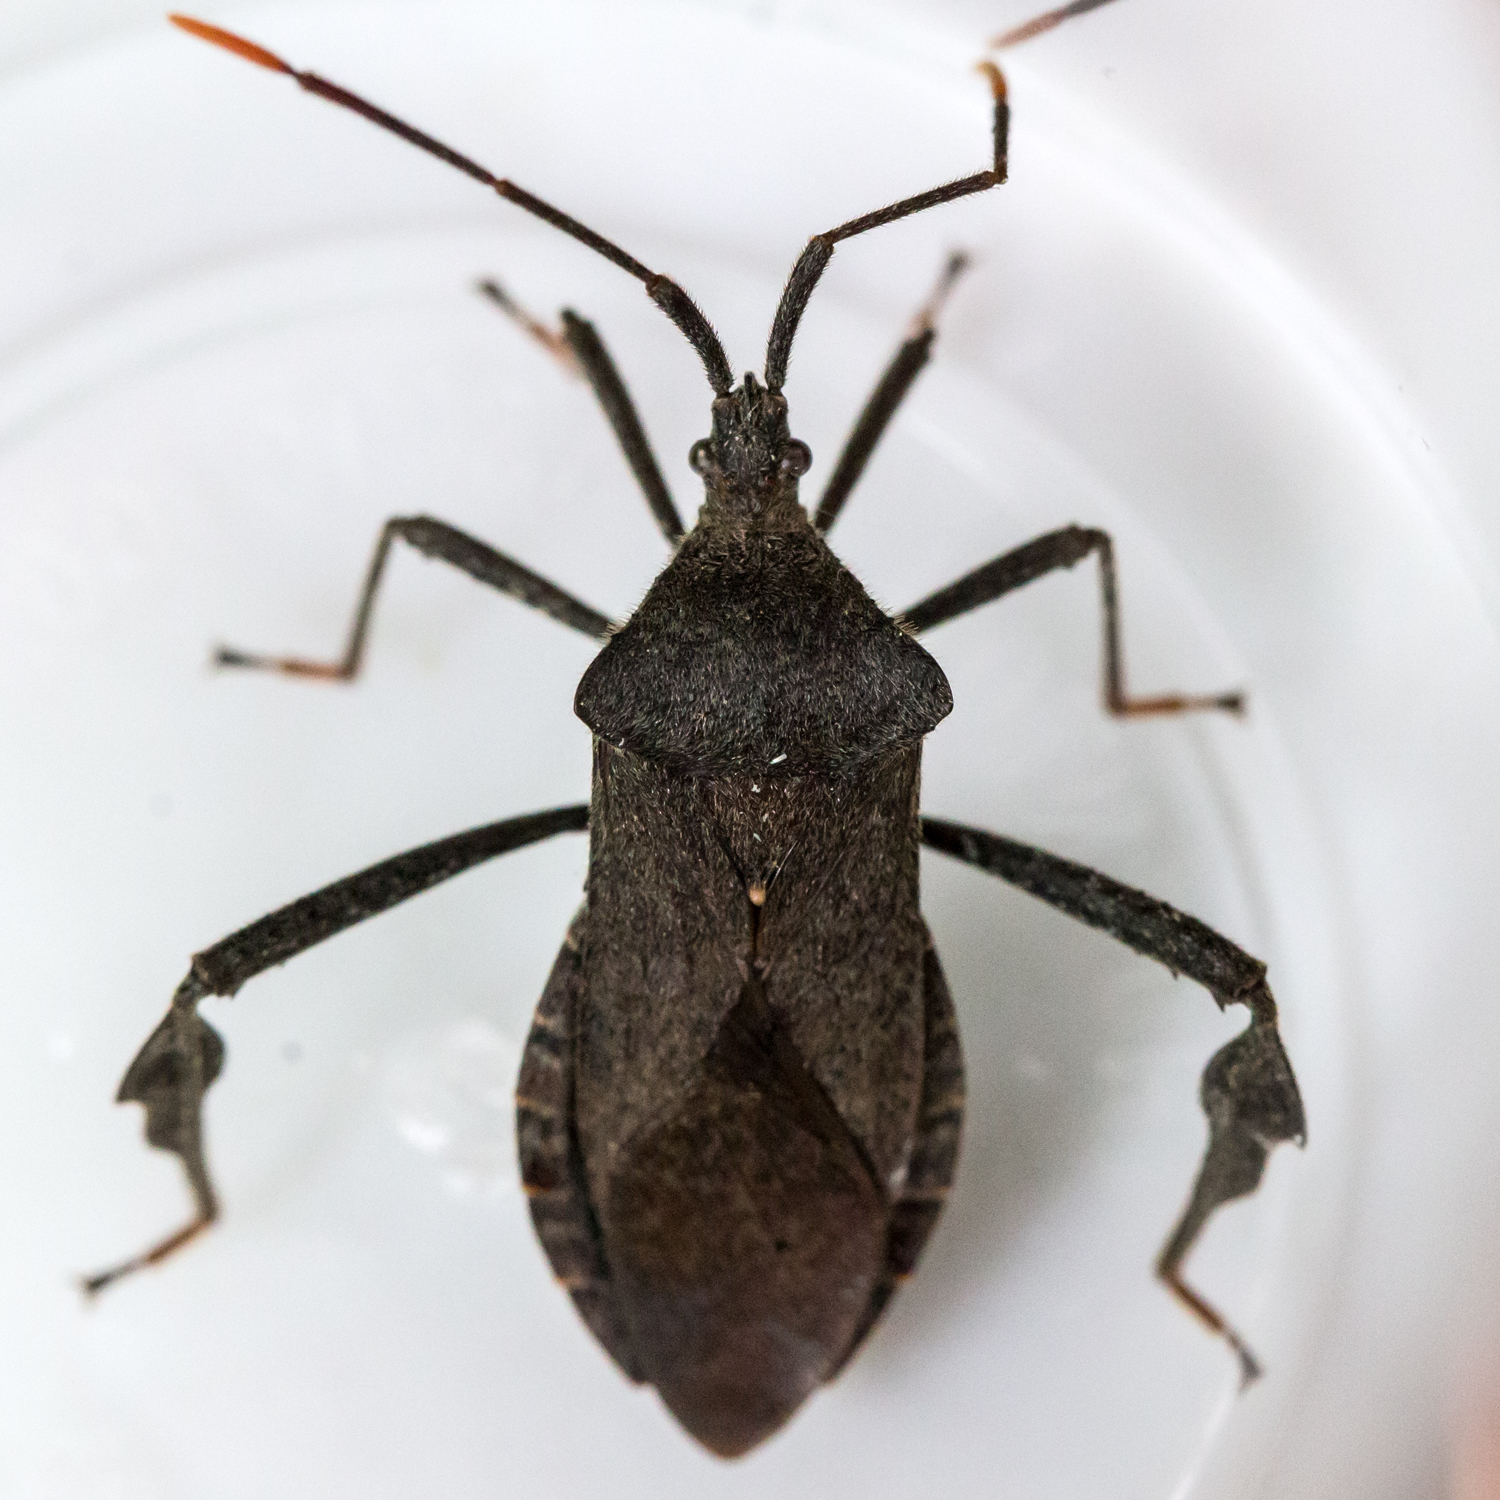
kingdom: Animalia
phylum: Arthropoda
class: Insecta
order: Hemiptera
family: Coreidae
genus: Acanthocephala
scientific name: Acanthocephala terminalis
